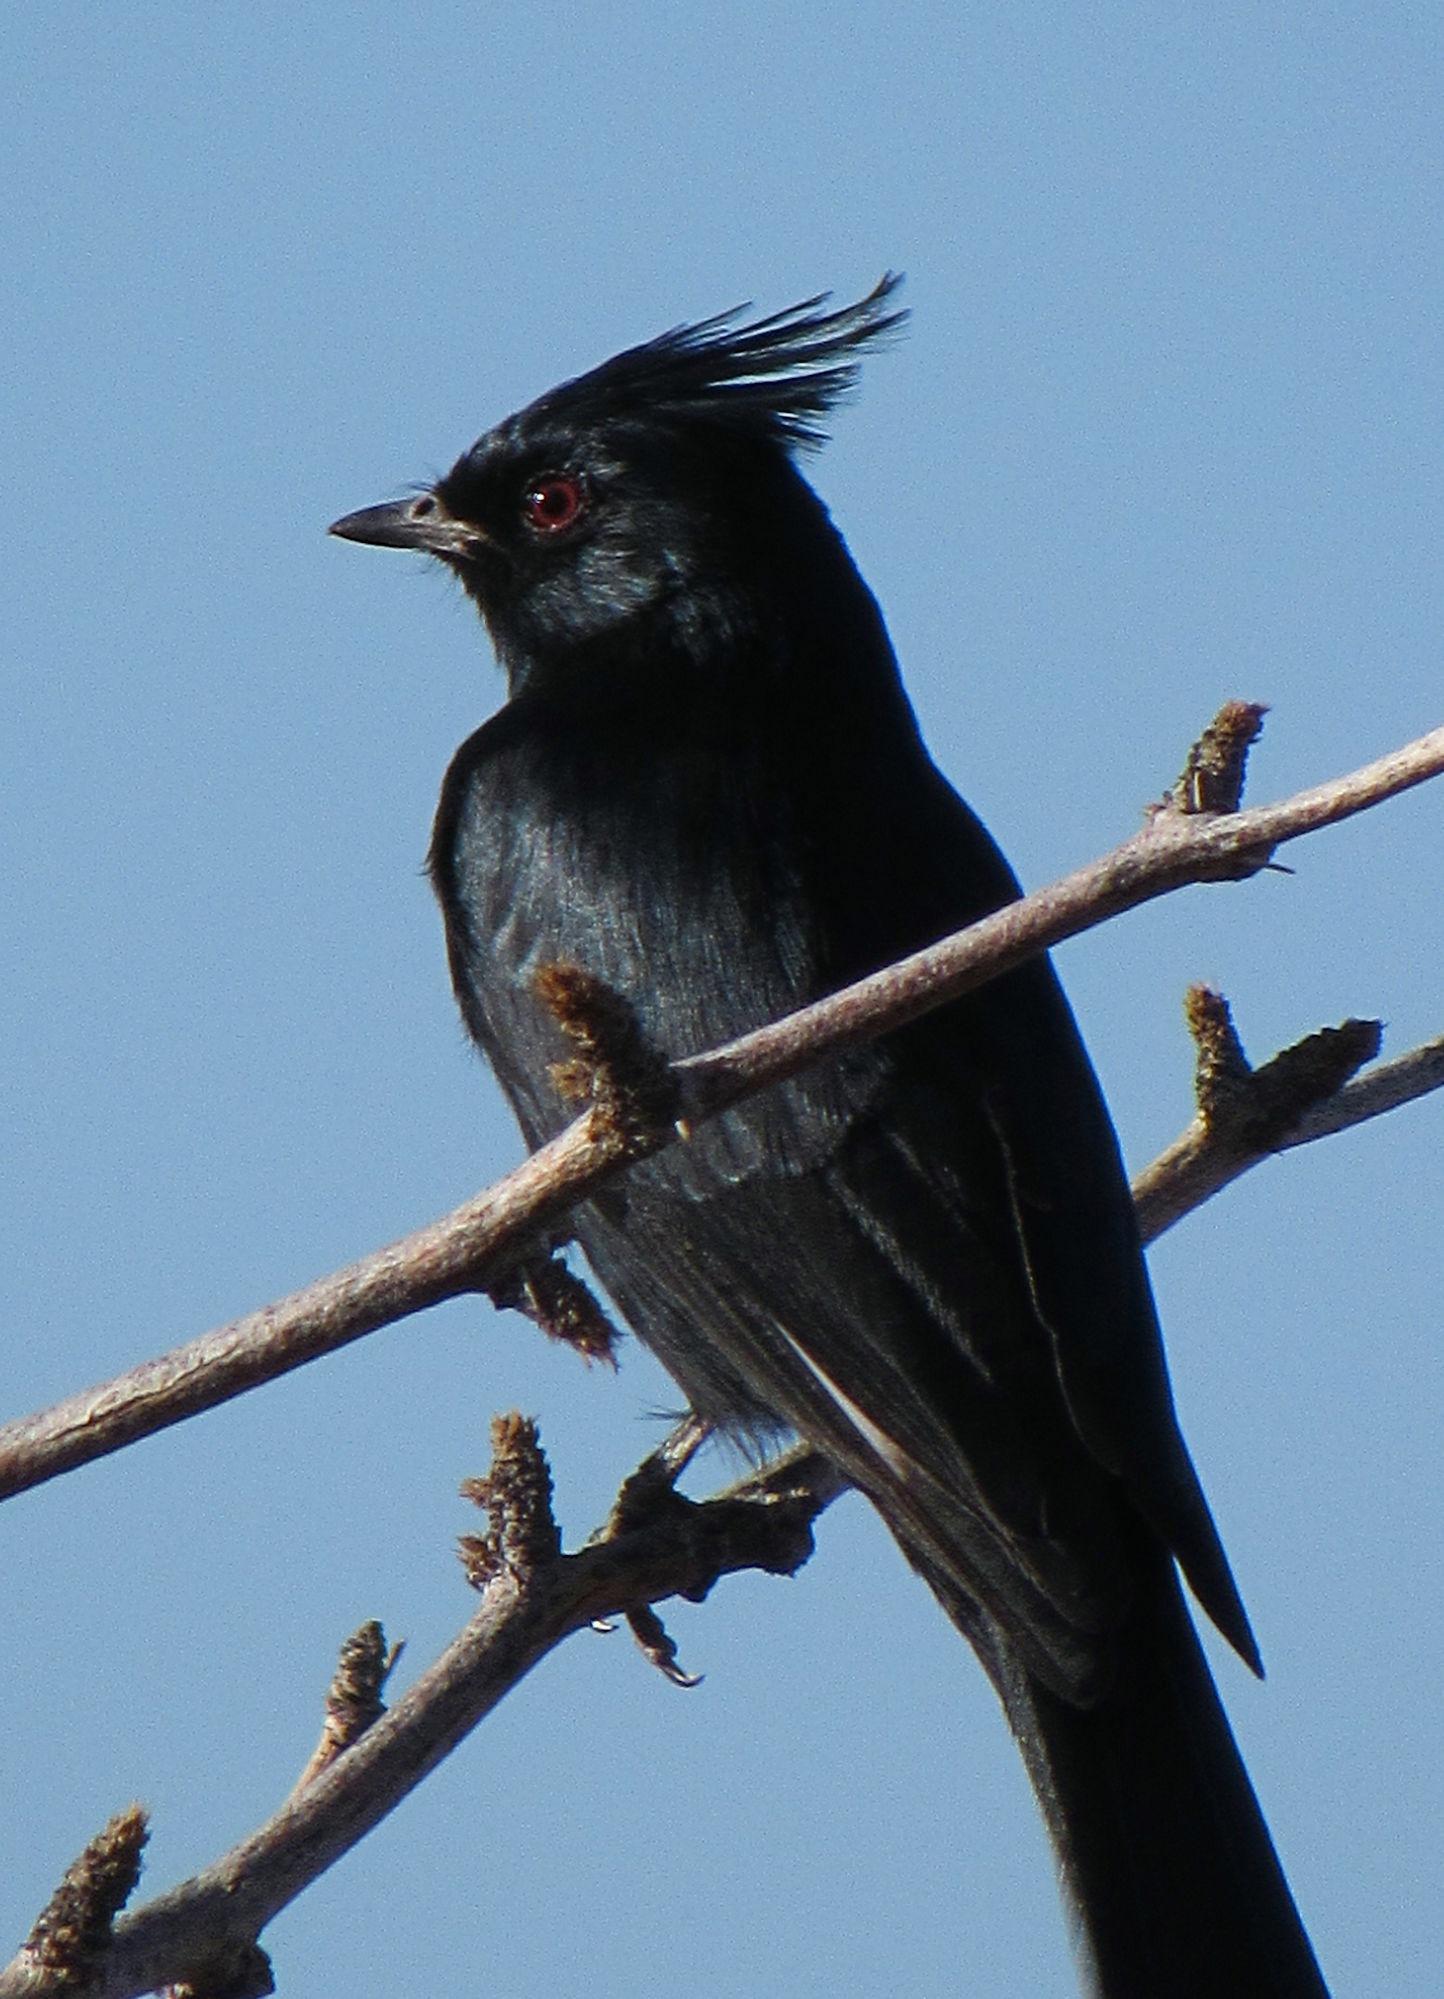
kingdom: Animalia
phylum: Chordata
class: Aves
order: Passeriformes
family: Ptilogonatidae
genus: Phainopepla
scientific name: Phainopepla nitens
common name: Phainopepla
